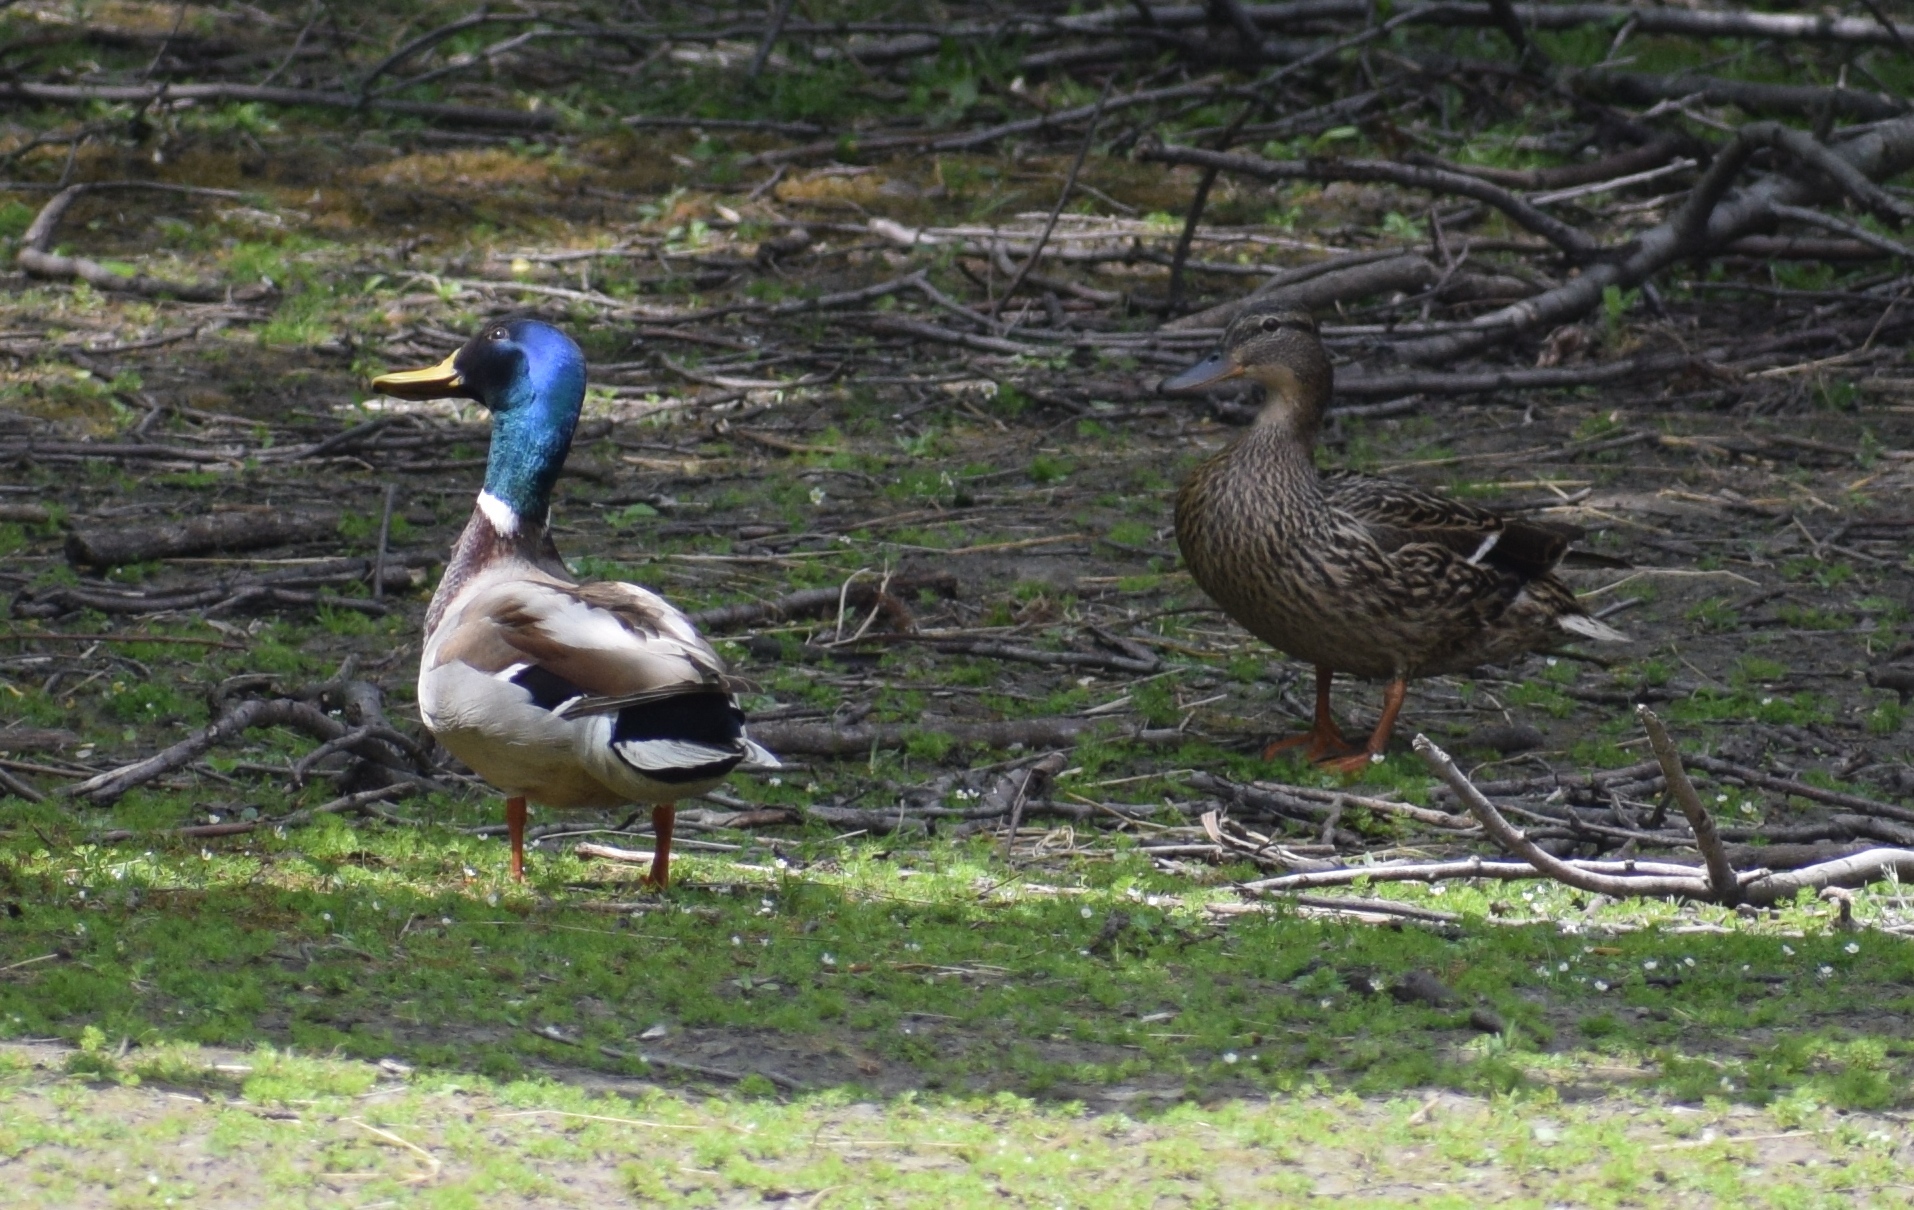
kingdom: Animalia
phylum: Chordata
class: Aves
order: Anseriformes
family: Anatidae
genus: Anas
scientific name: Anas platyrhynchos
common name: Mallard
